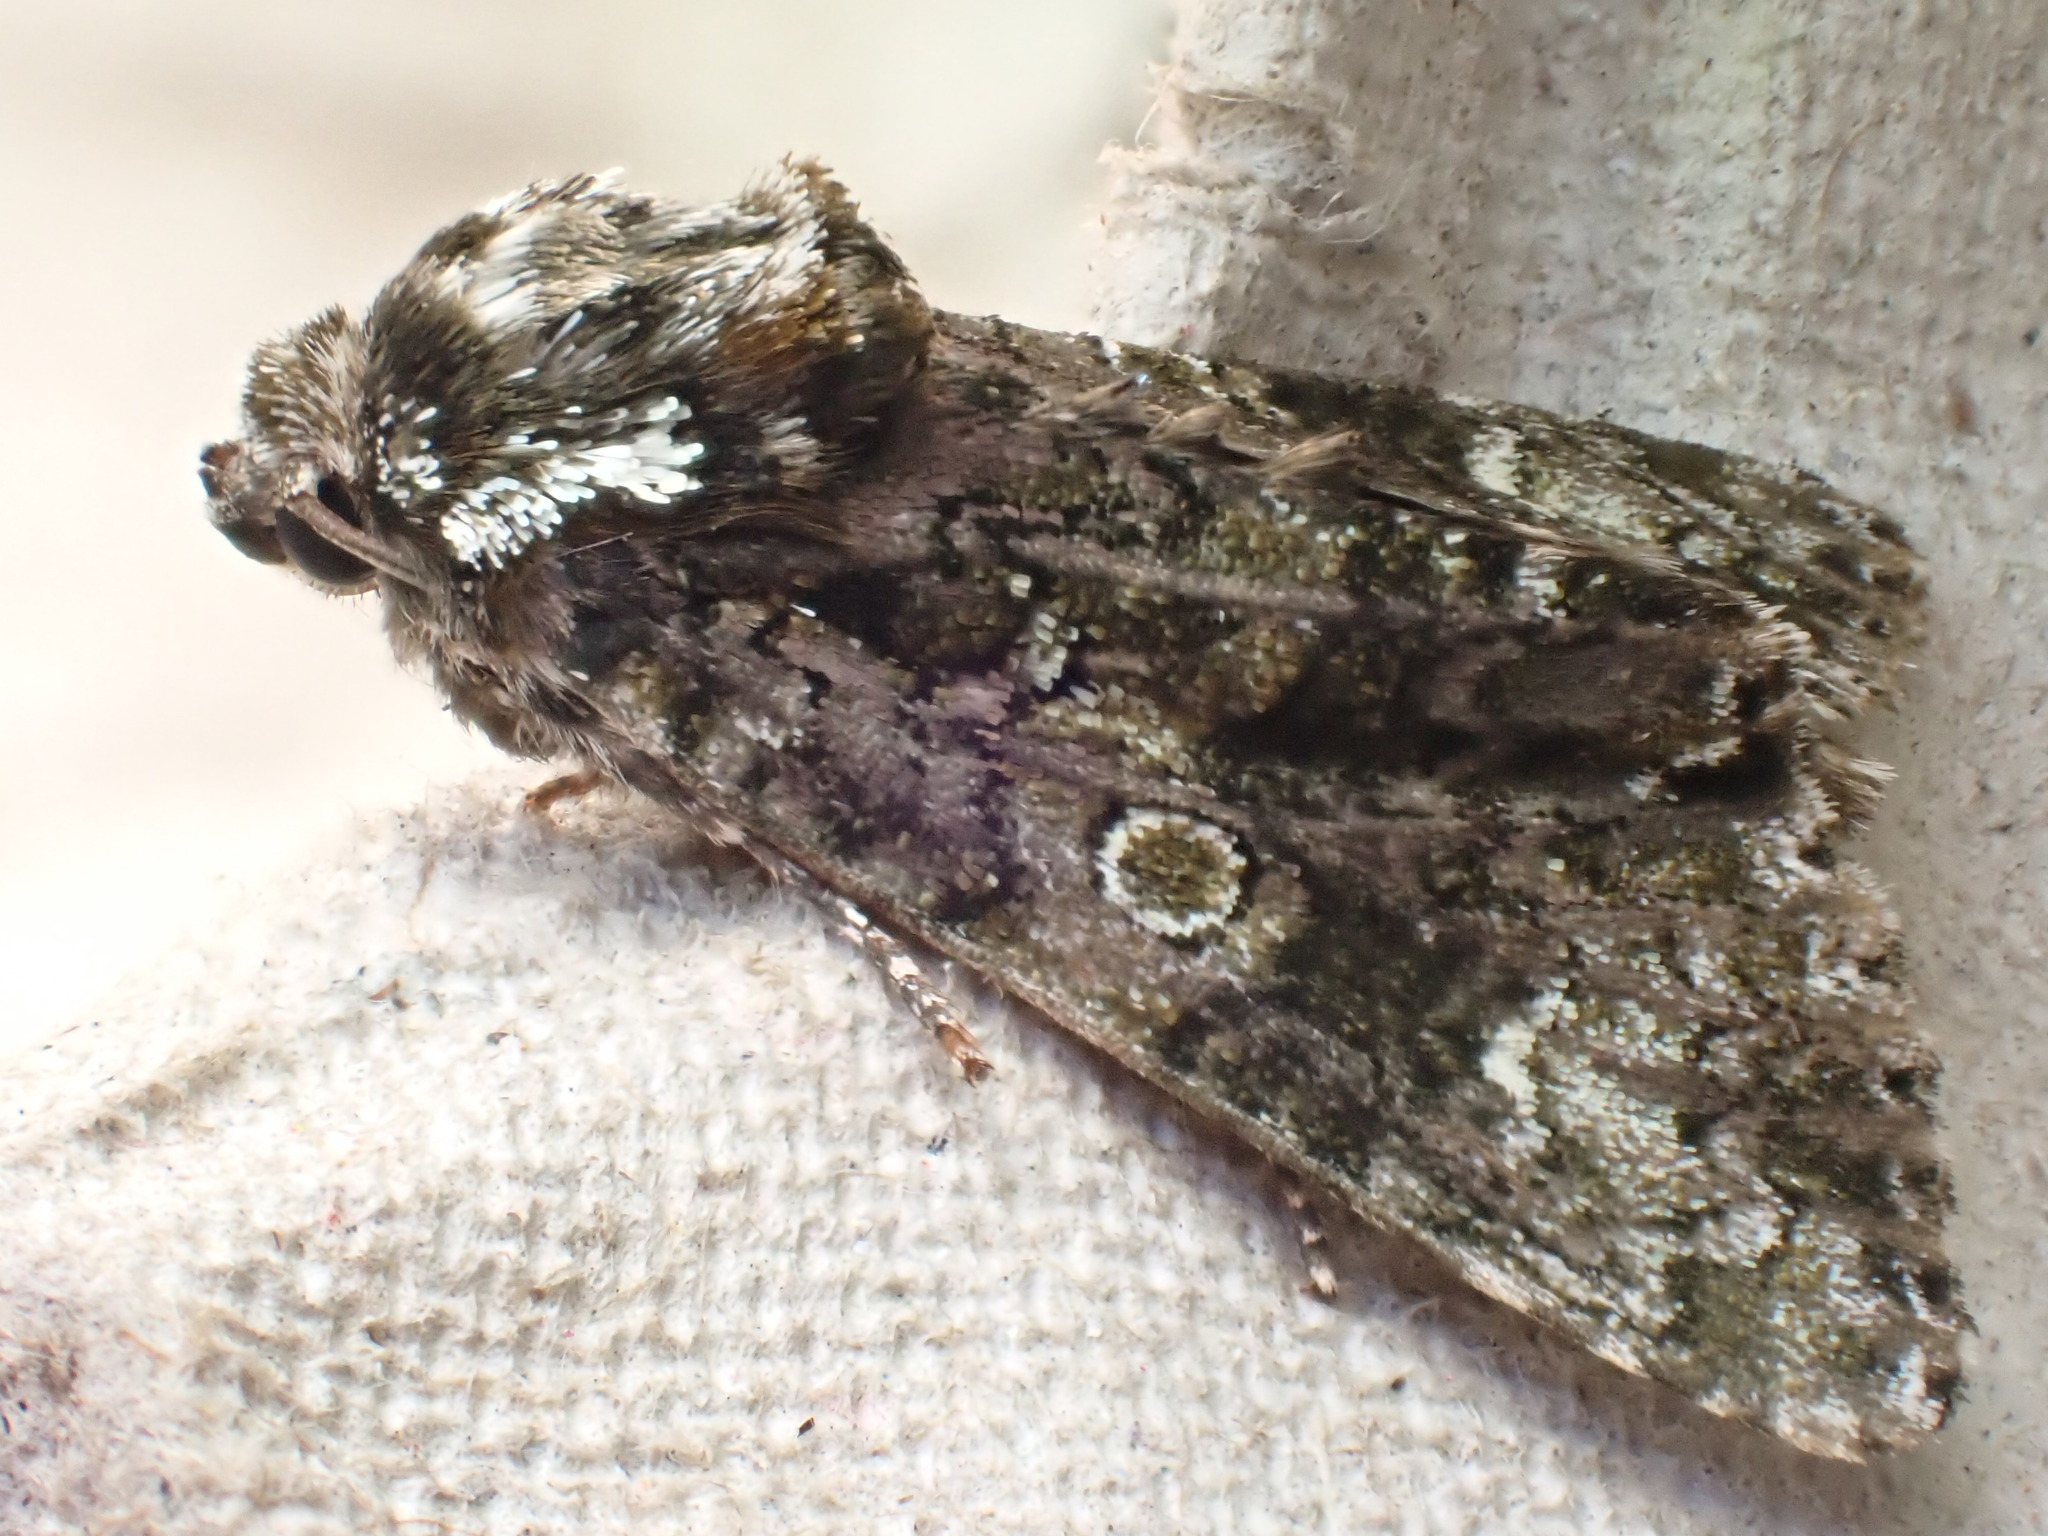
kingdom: Animalia
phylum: Arthropoda
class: Insecta
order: Lepidoptera
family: Noctuidae
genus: Craniophora
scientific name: Craniophora ligustri
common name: Coronet
